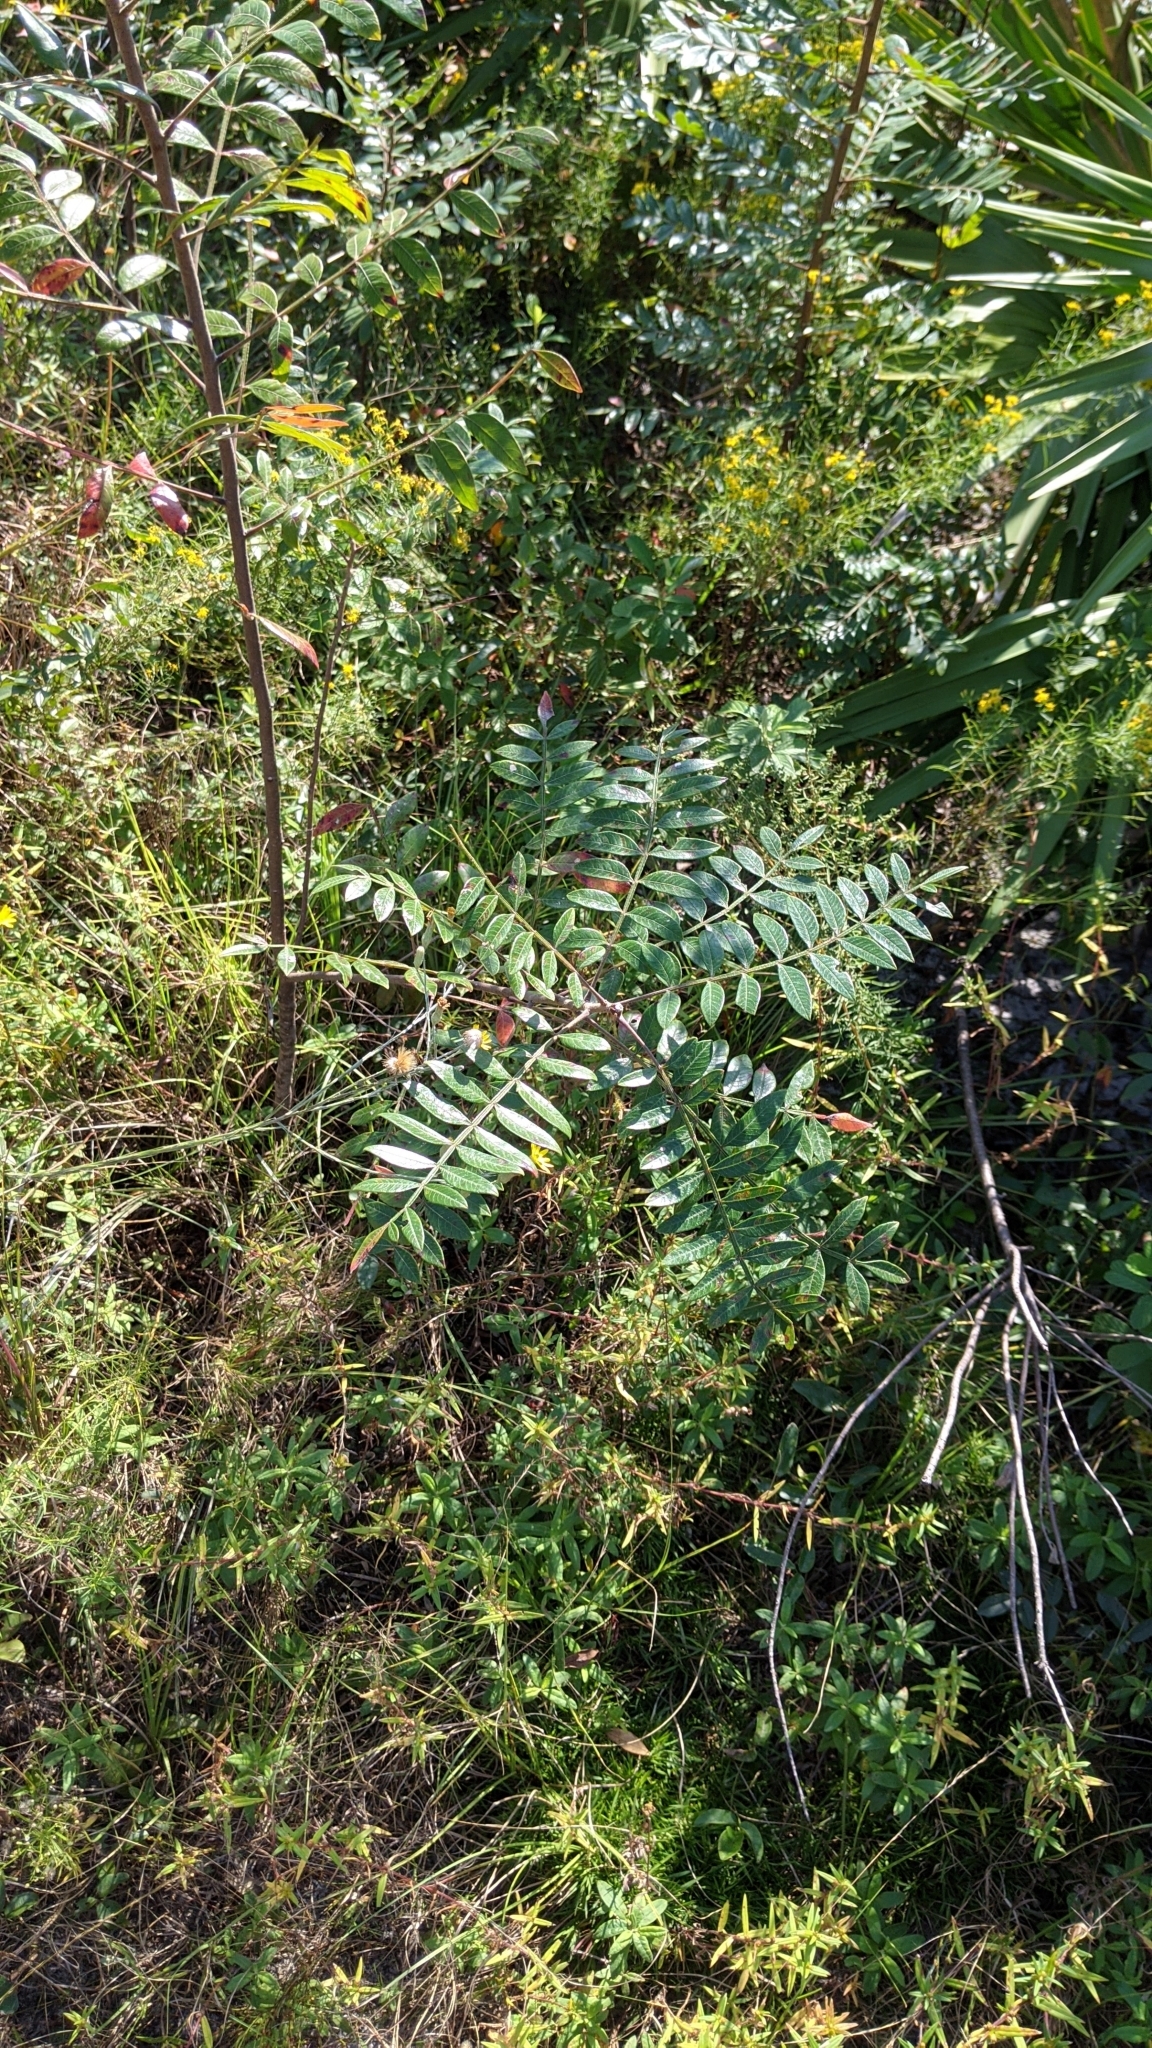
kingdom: Plantae
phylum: Tracheophyta
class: Magnoliopsida
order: Sapindales
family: Anacardiaceae
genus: Rhus
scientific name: Rhus copallina
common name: Shining sumac
